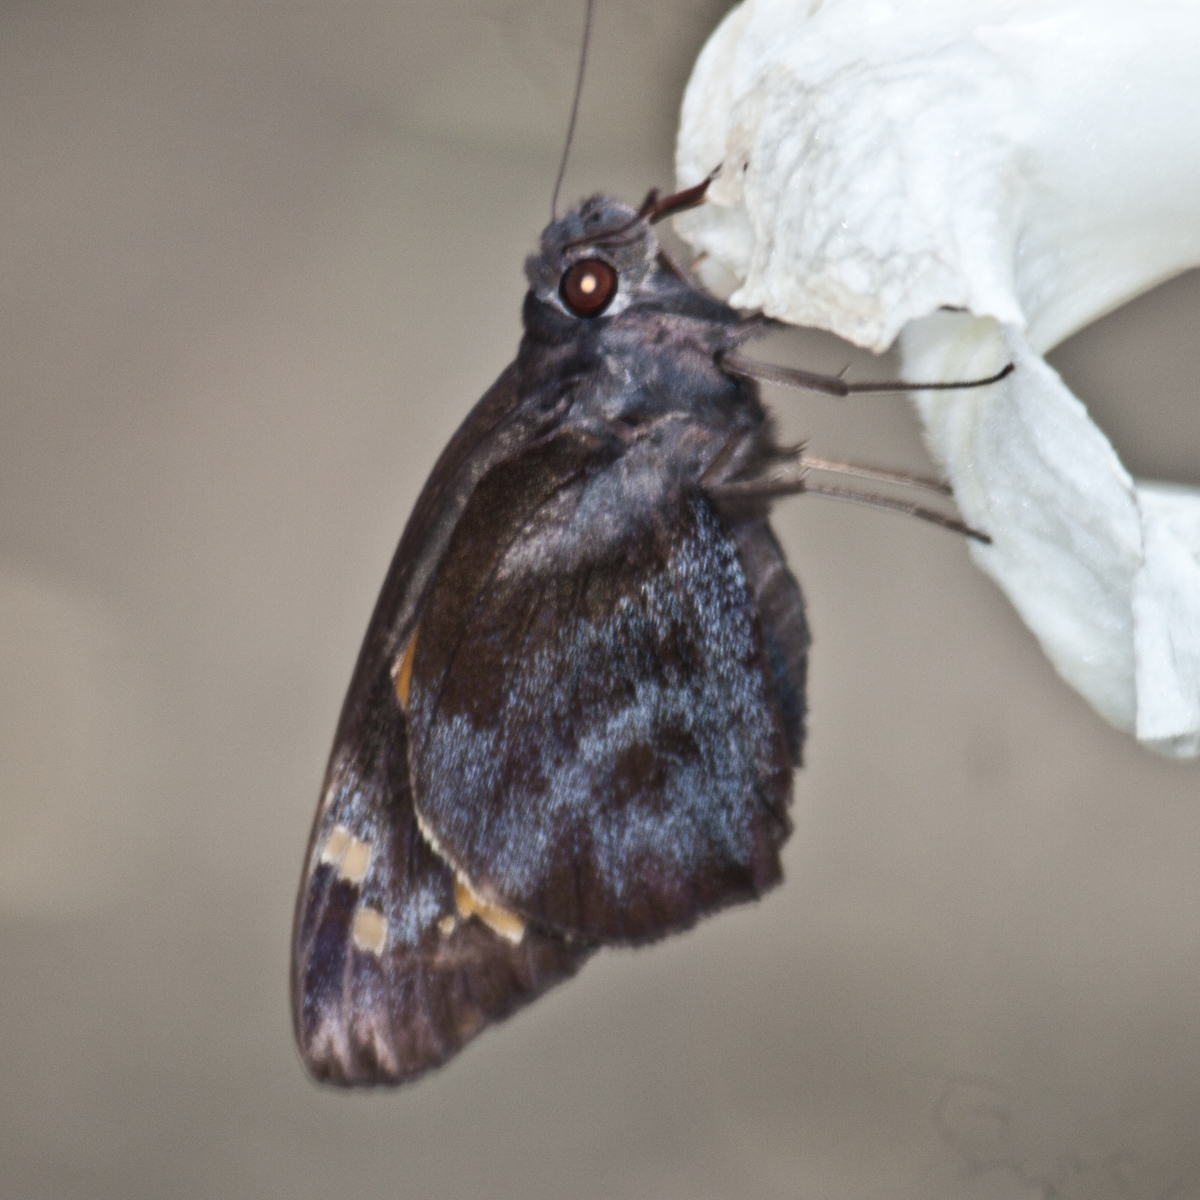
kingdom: Animalia
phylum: Arthropoda
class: Insecta
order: Lepidoptera
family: Hesperiidae
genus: Gangara
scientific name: Gangara thyrsis
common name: Giant redeye
